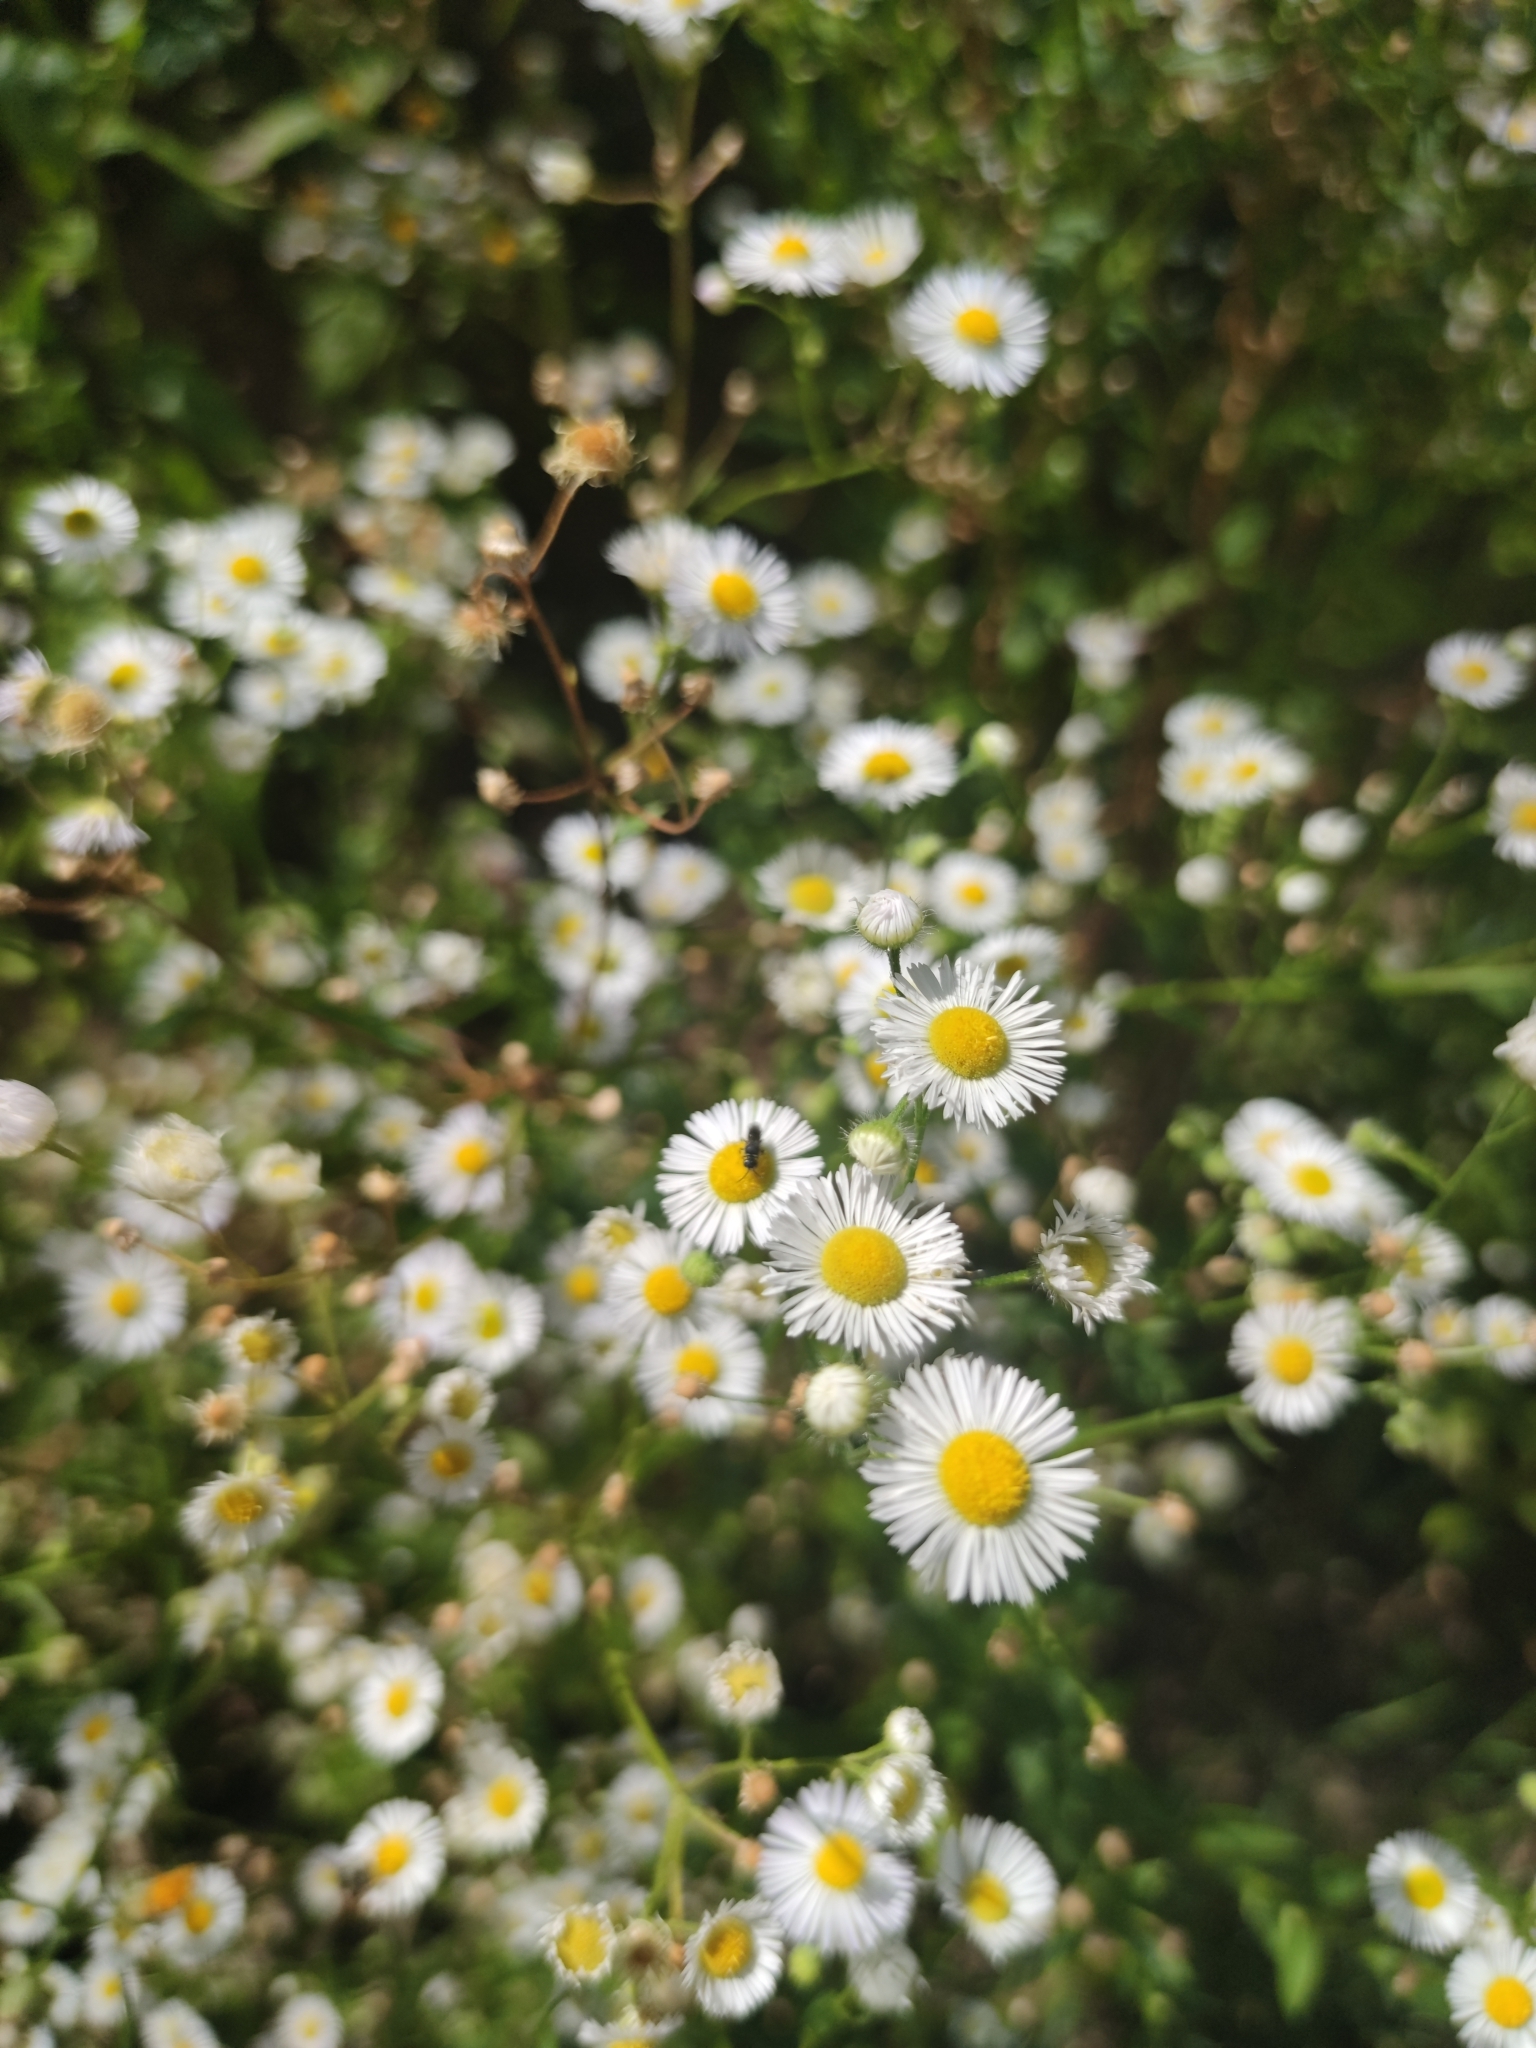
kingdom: Plantae
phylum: Tracheophyta
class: Magnoliopsida
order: Asterales
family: Asteraceae
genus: Erigeron
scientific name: Erigeron annuus
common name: Tall fleabane
